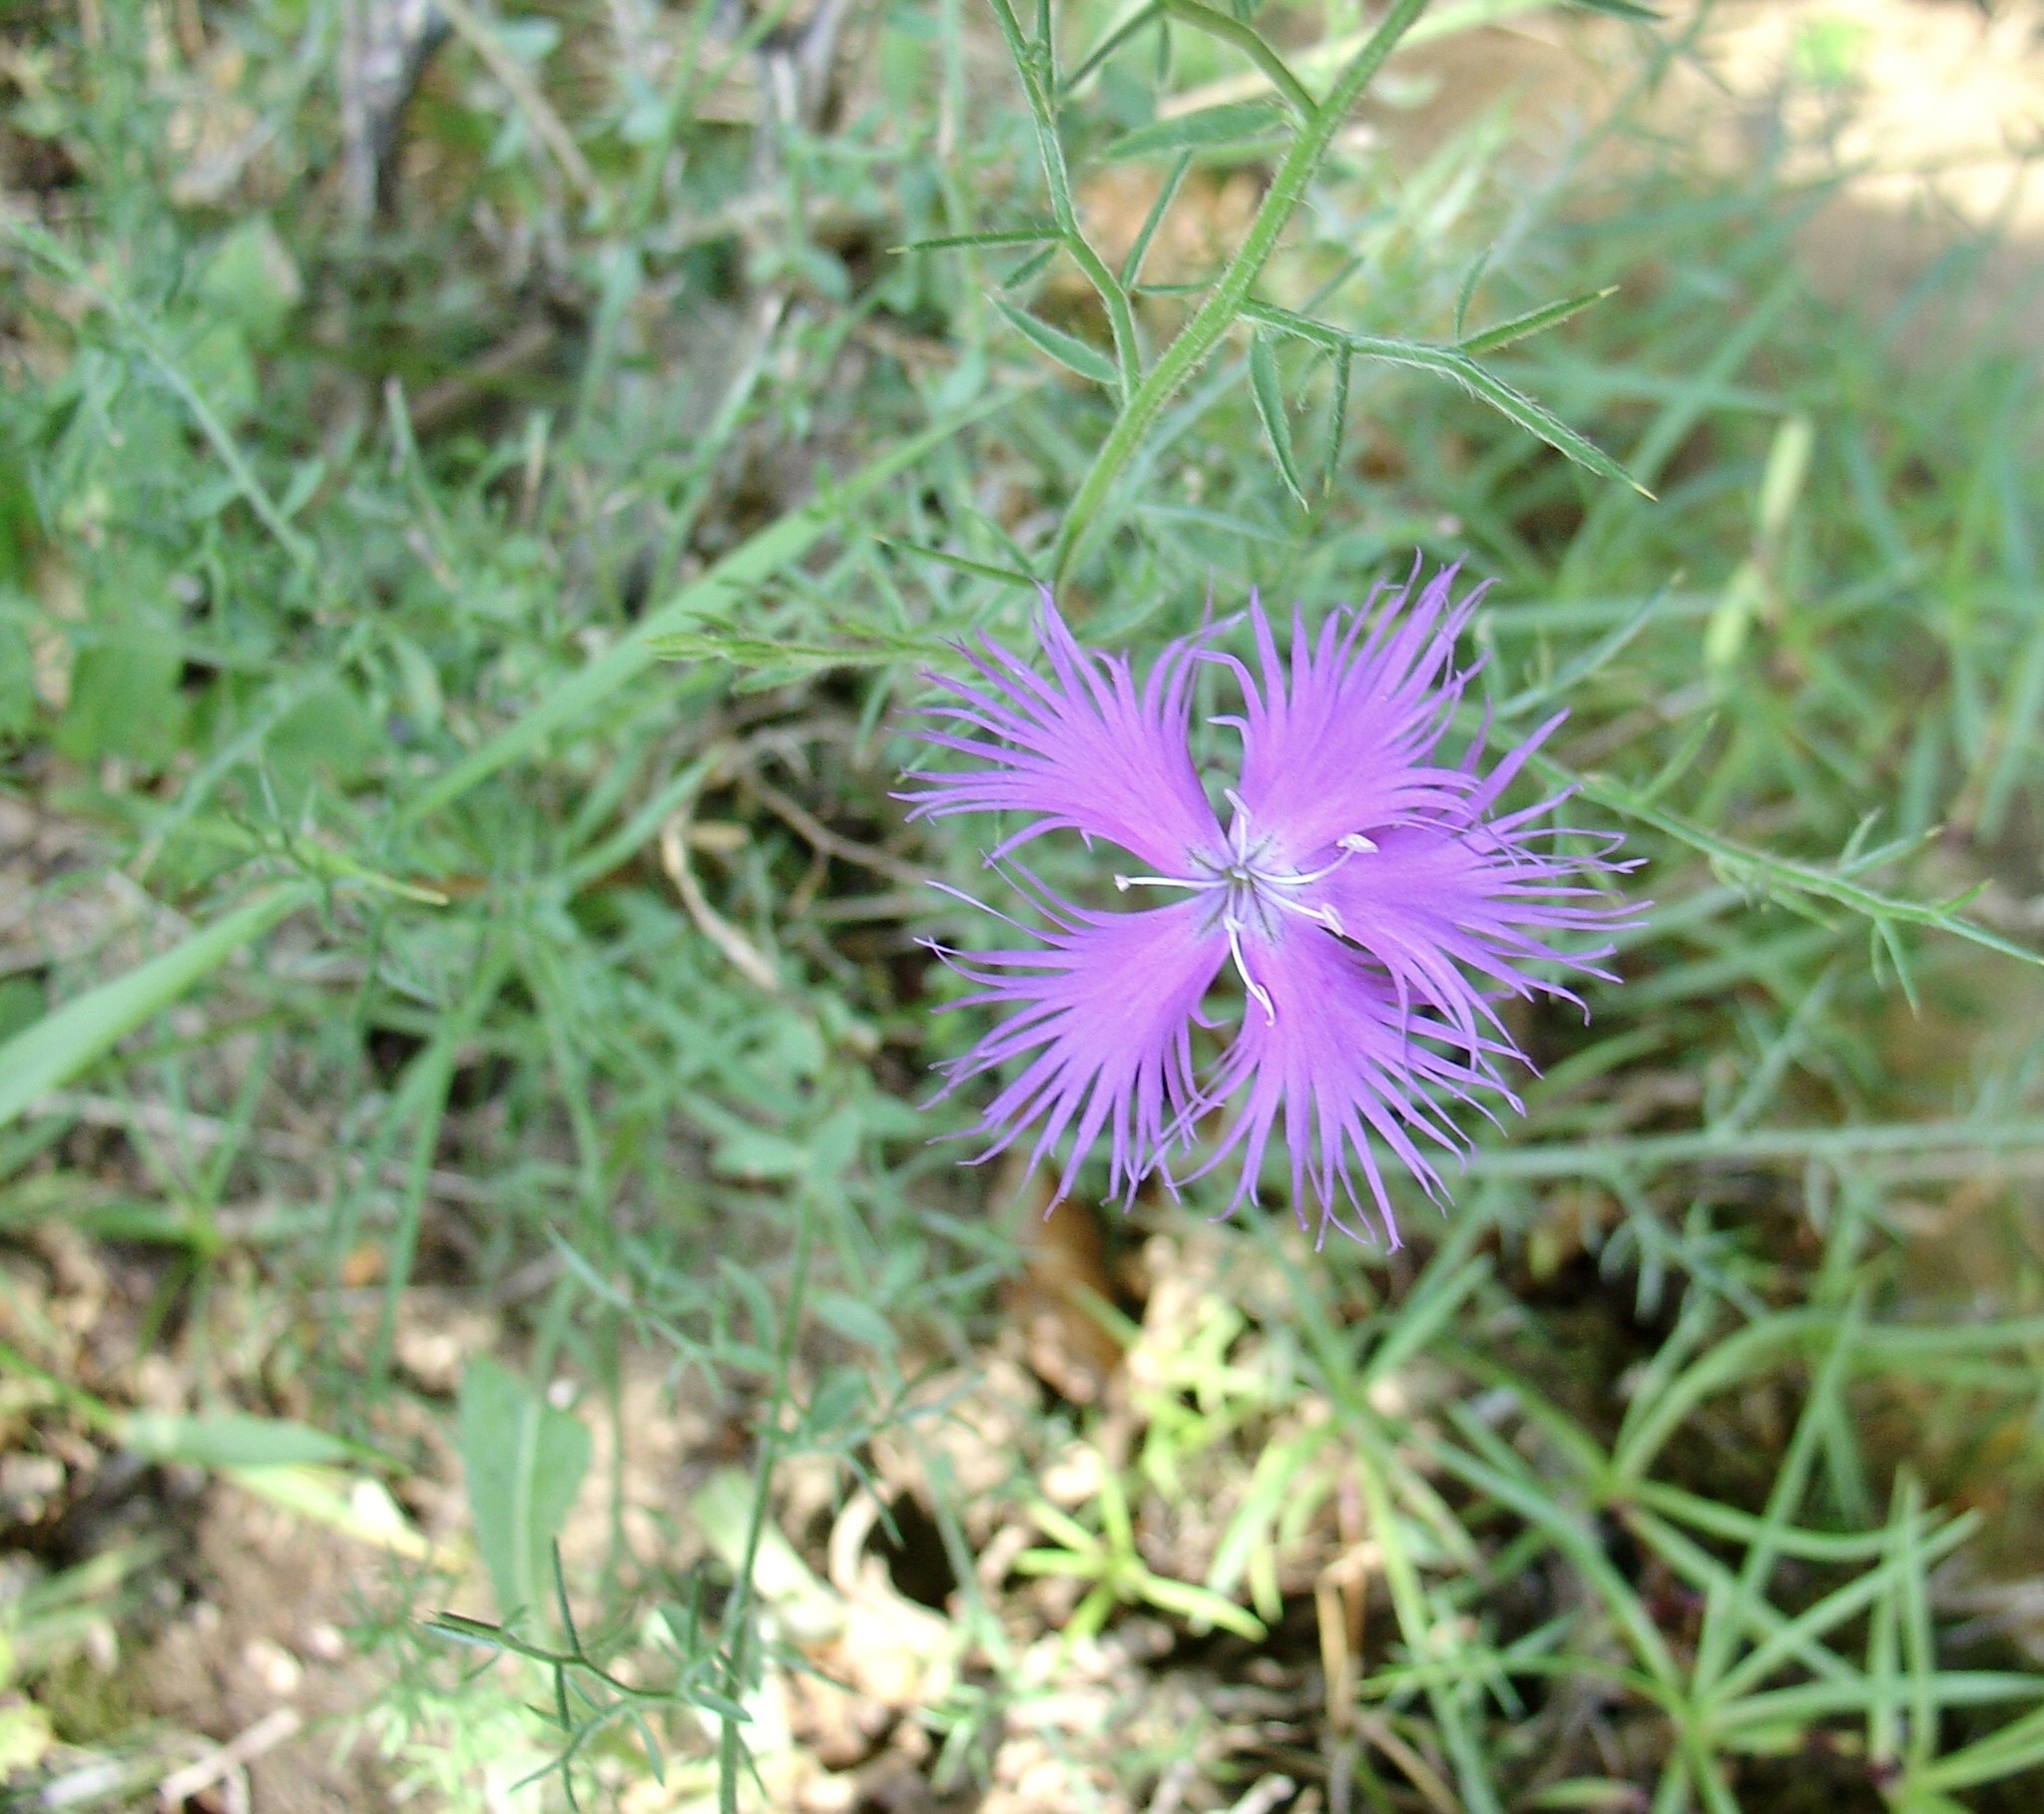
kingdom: Plantae
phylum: Tracheophyta
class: Magnoliopsida
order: Caryophyllales
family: Caryophyllaceae
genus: Dianthus
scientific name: Dianthus hyssopifolius
